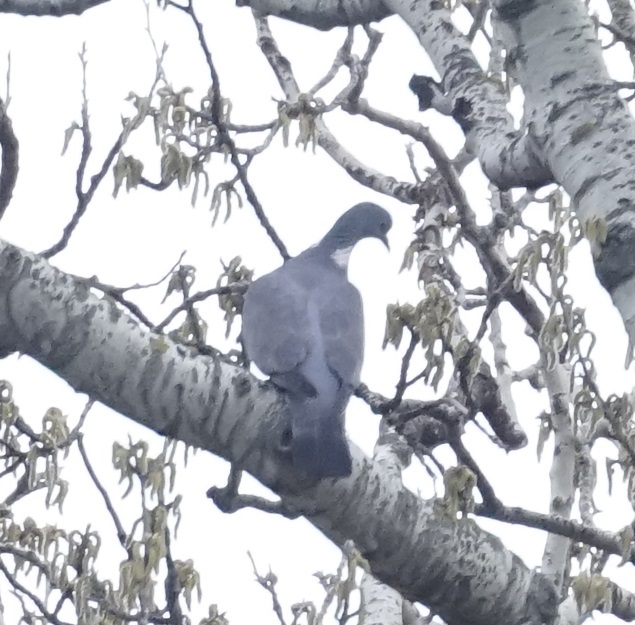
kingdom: Animalia
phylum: Chordata
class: Aves
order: Columbiformes
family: Columbidae
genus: Columba
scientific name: Columba palumbus
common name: Common wood pigeon
